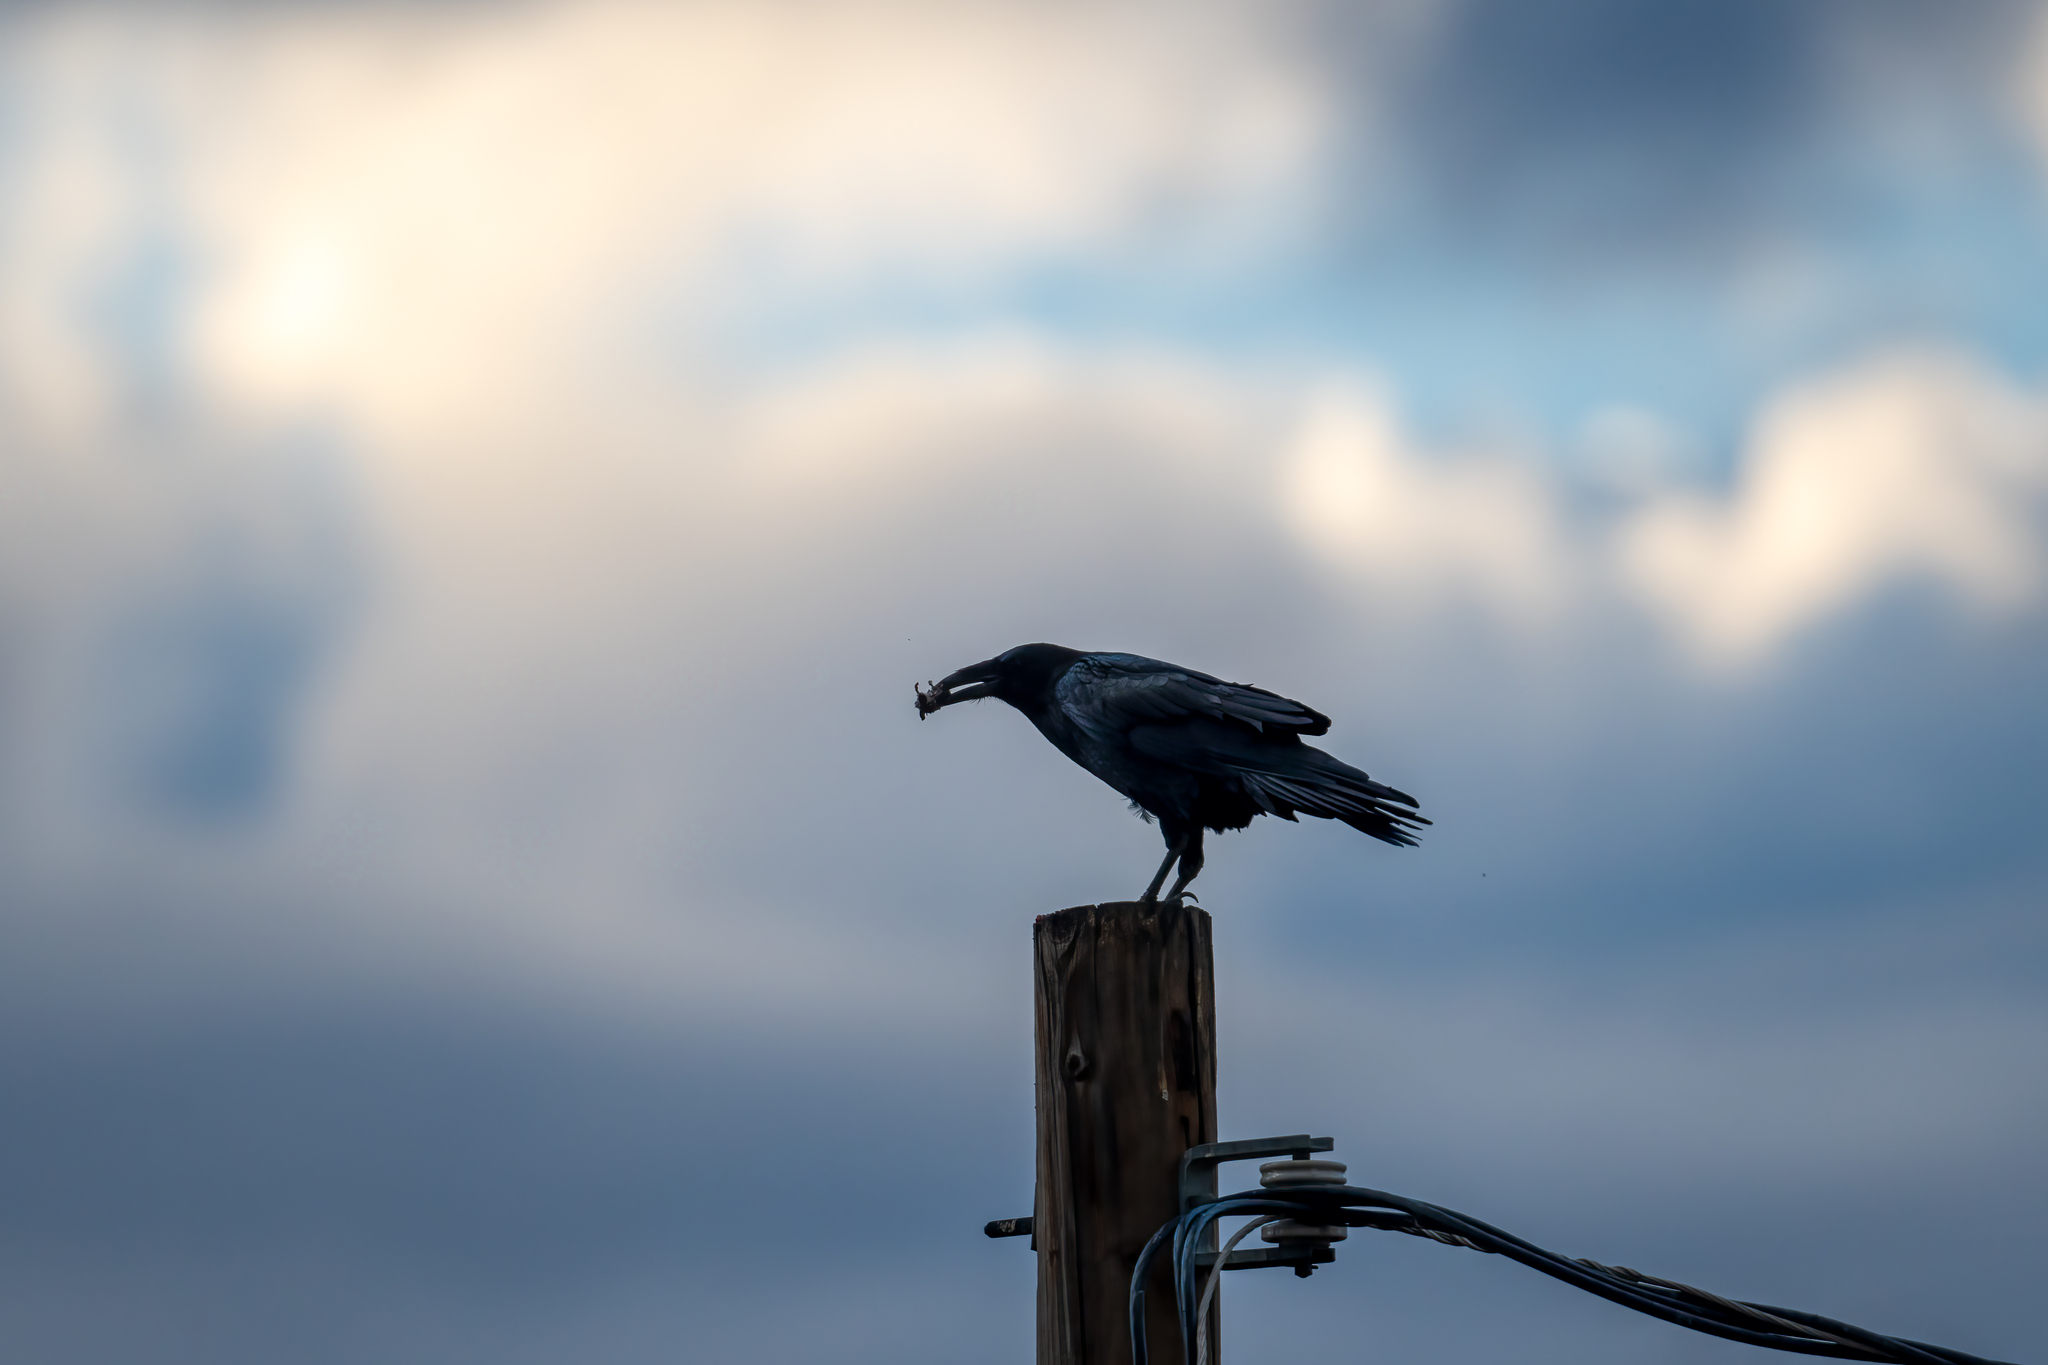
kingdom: Animalia
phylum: Chordata
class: Aves
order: Passeriformes
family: Corvidae
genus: Corvus
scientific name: Corvus corax
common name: Common raven
